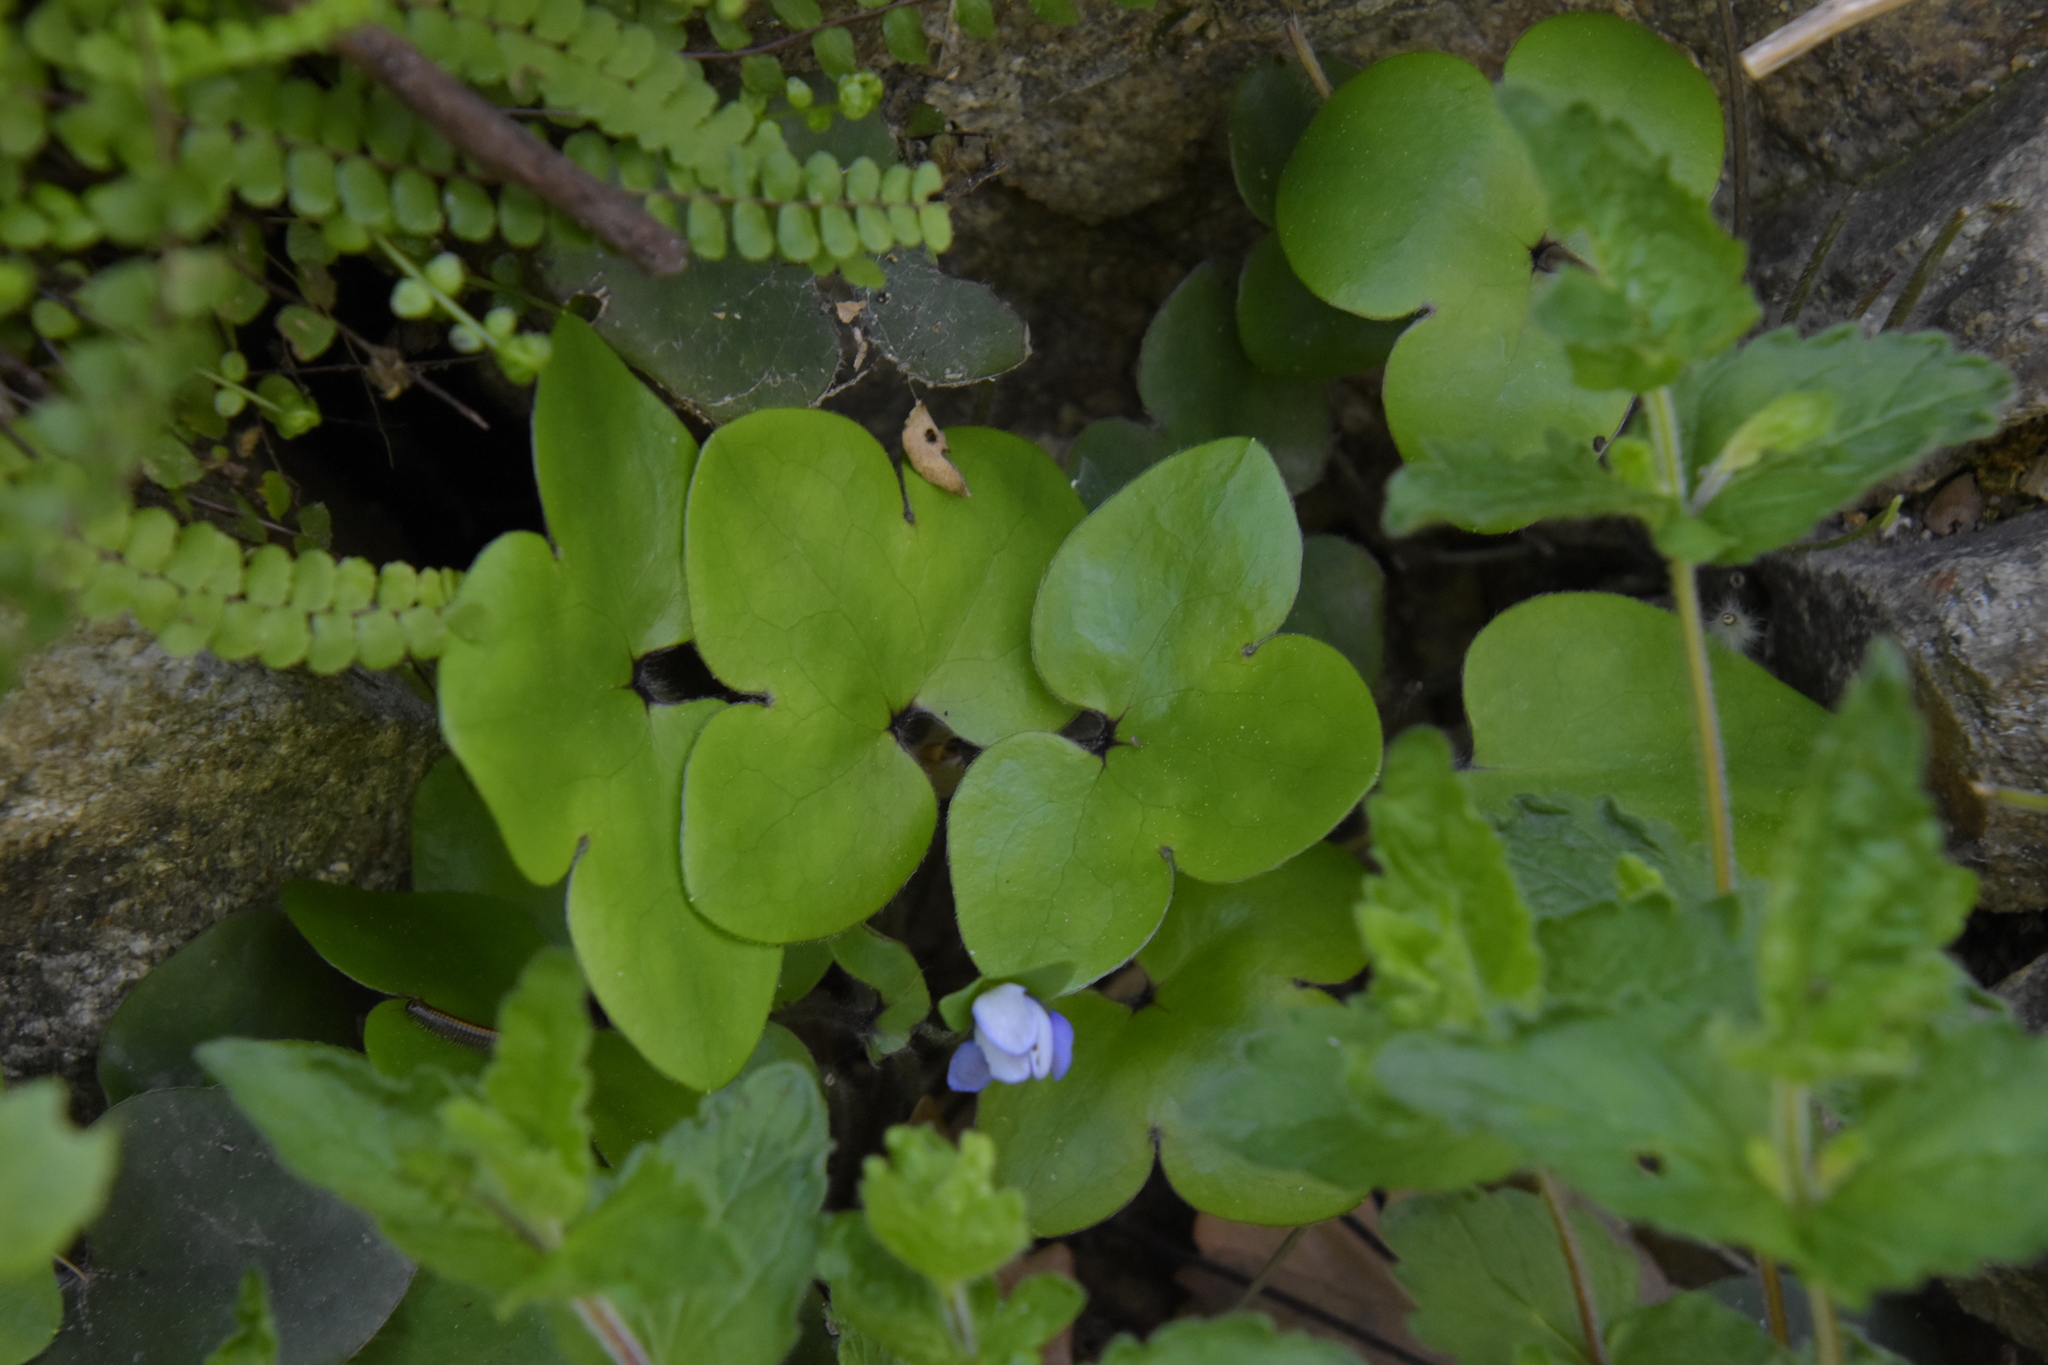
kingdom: Plantae
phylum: Tracheophyta
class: Magnoliopsida
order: Ranunculales
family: Ranunculaceae
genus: Hepatica
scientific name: Hepatica nobilis
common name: Liverleaf
